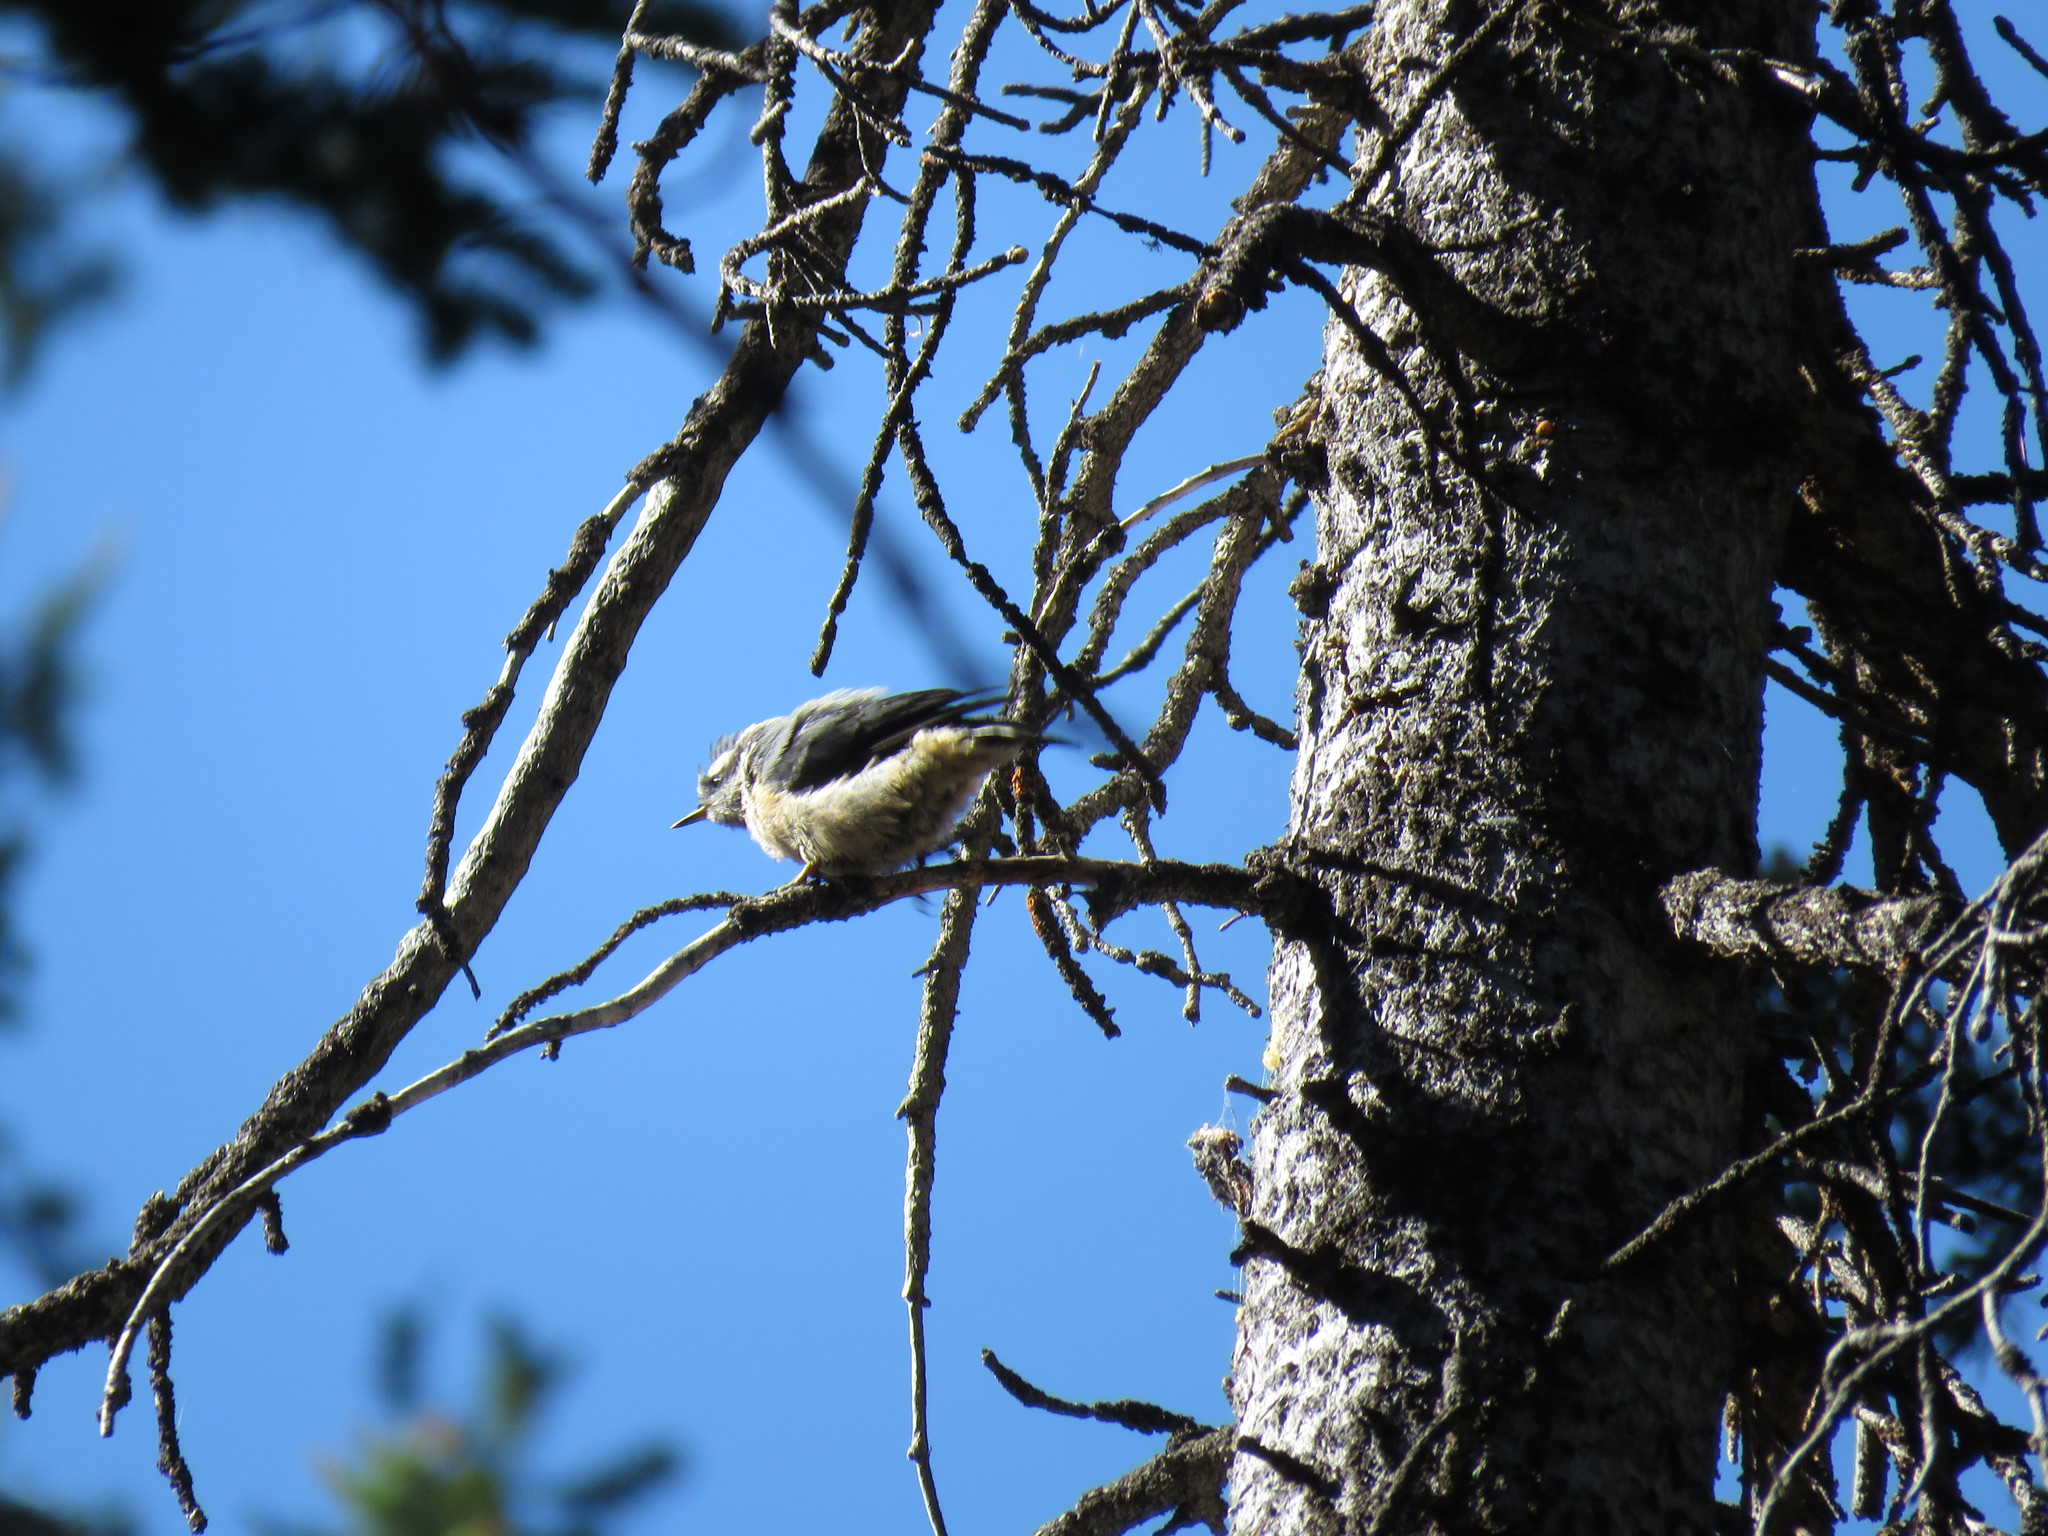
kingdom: Animalia
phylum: Chordata
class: Aves
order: Passeriformes
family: Sittidae
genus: Sitta
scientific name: Sitta canadensis
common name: Red-breasted nuthatch
